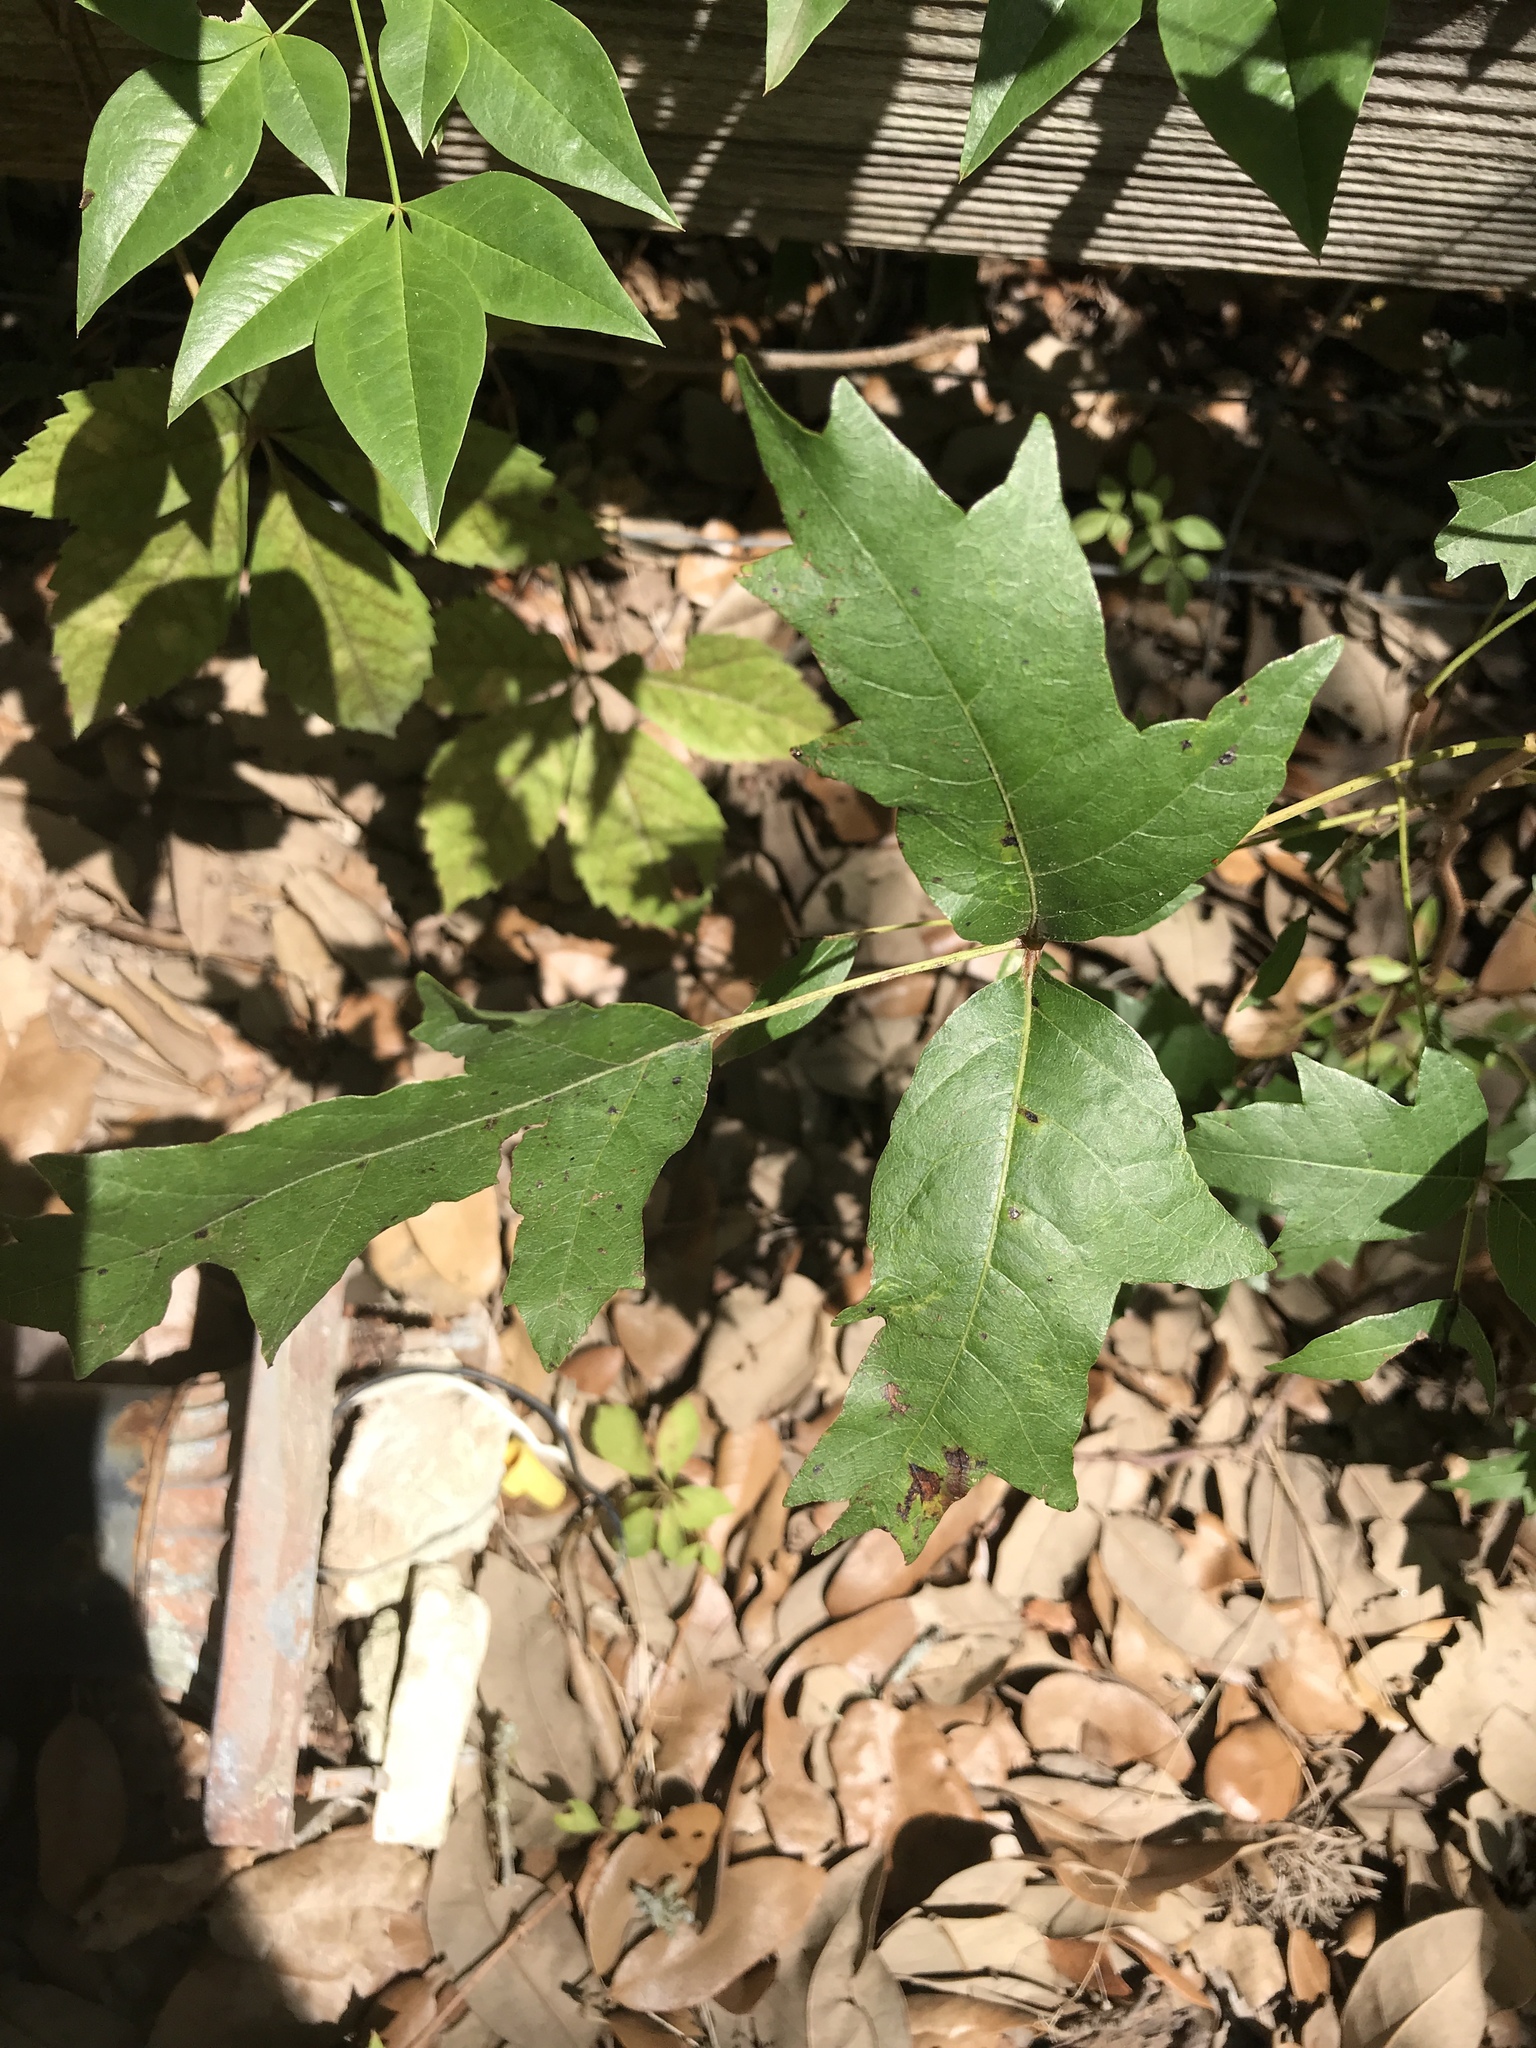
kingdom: Plantae
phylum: Tracheophyta
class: Magnoliopsida
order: Sapindales
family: Anacardiaceae
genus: Toxicodendron
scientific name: Toxicodendron radicans
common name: Poison ivy
